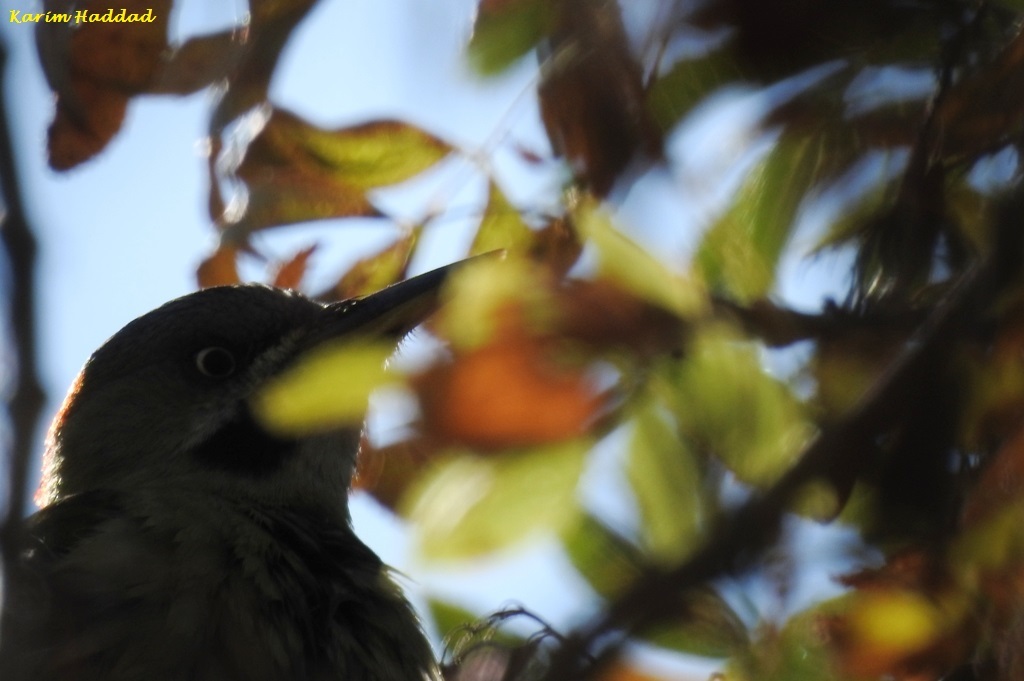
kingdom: Animalia
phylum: Chordata
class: Aves
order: Piciformes
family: Picidae
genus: Picus
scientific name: Picus vaillantii
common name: Levaillant's woodpecker
